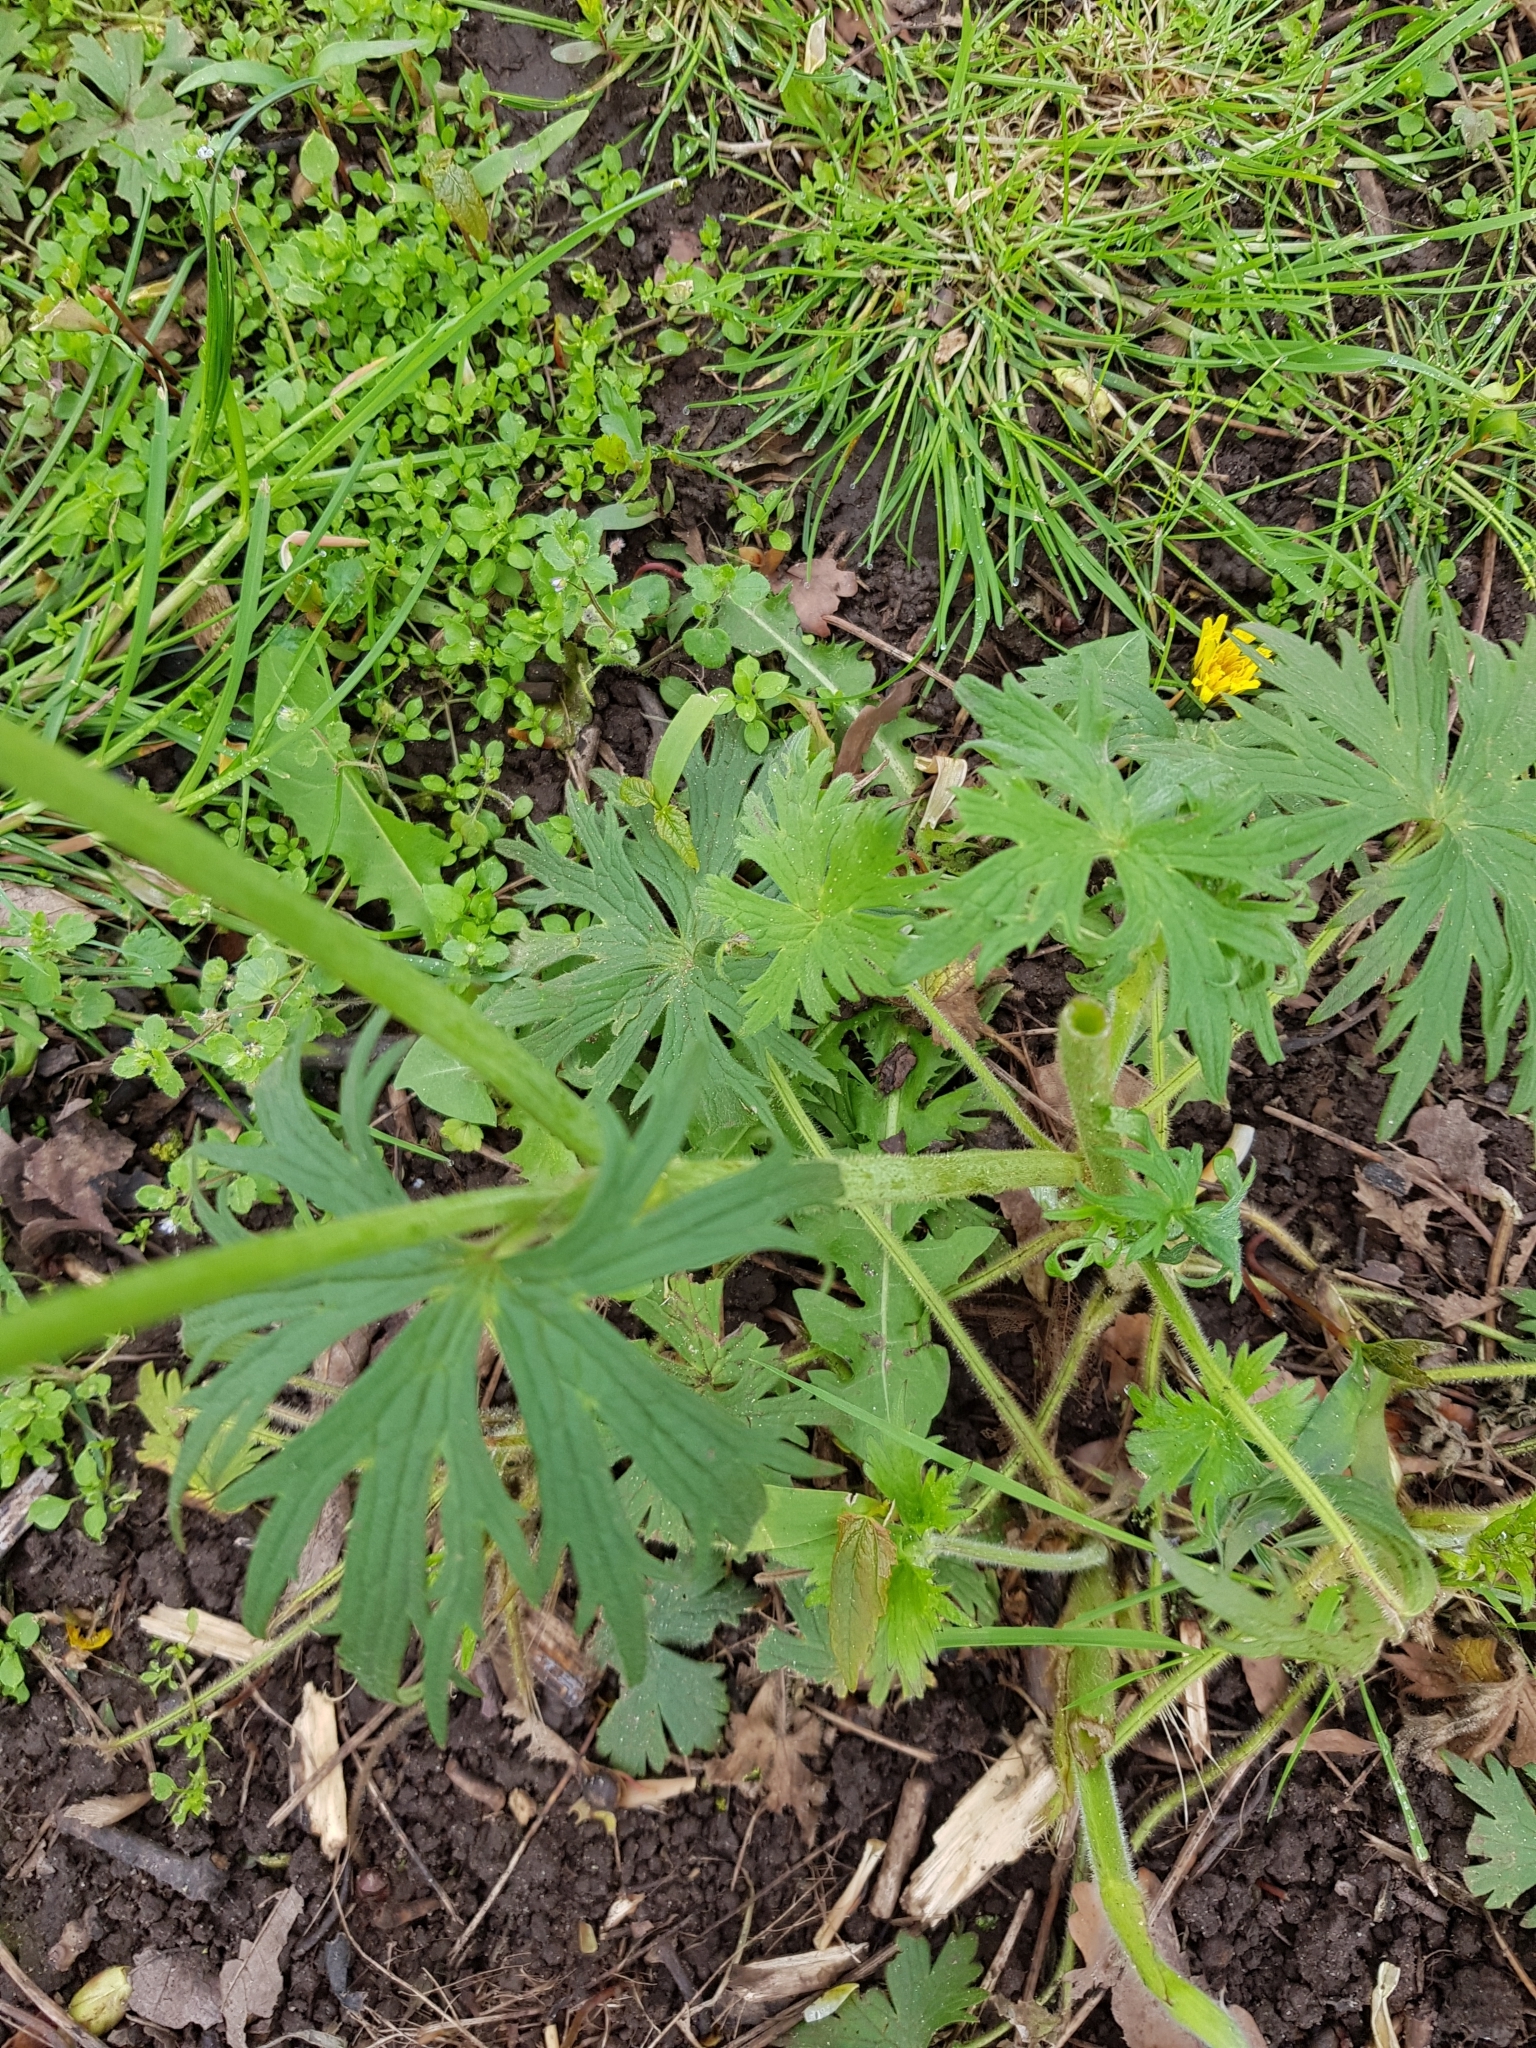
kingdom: Plantae
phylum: Tracheophyta
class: Magnoliopsida
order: Ranunculales
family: Ranunculaceae
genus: Ranunculus
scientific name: Ranunculus acris
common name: Meadow buttercup
